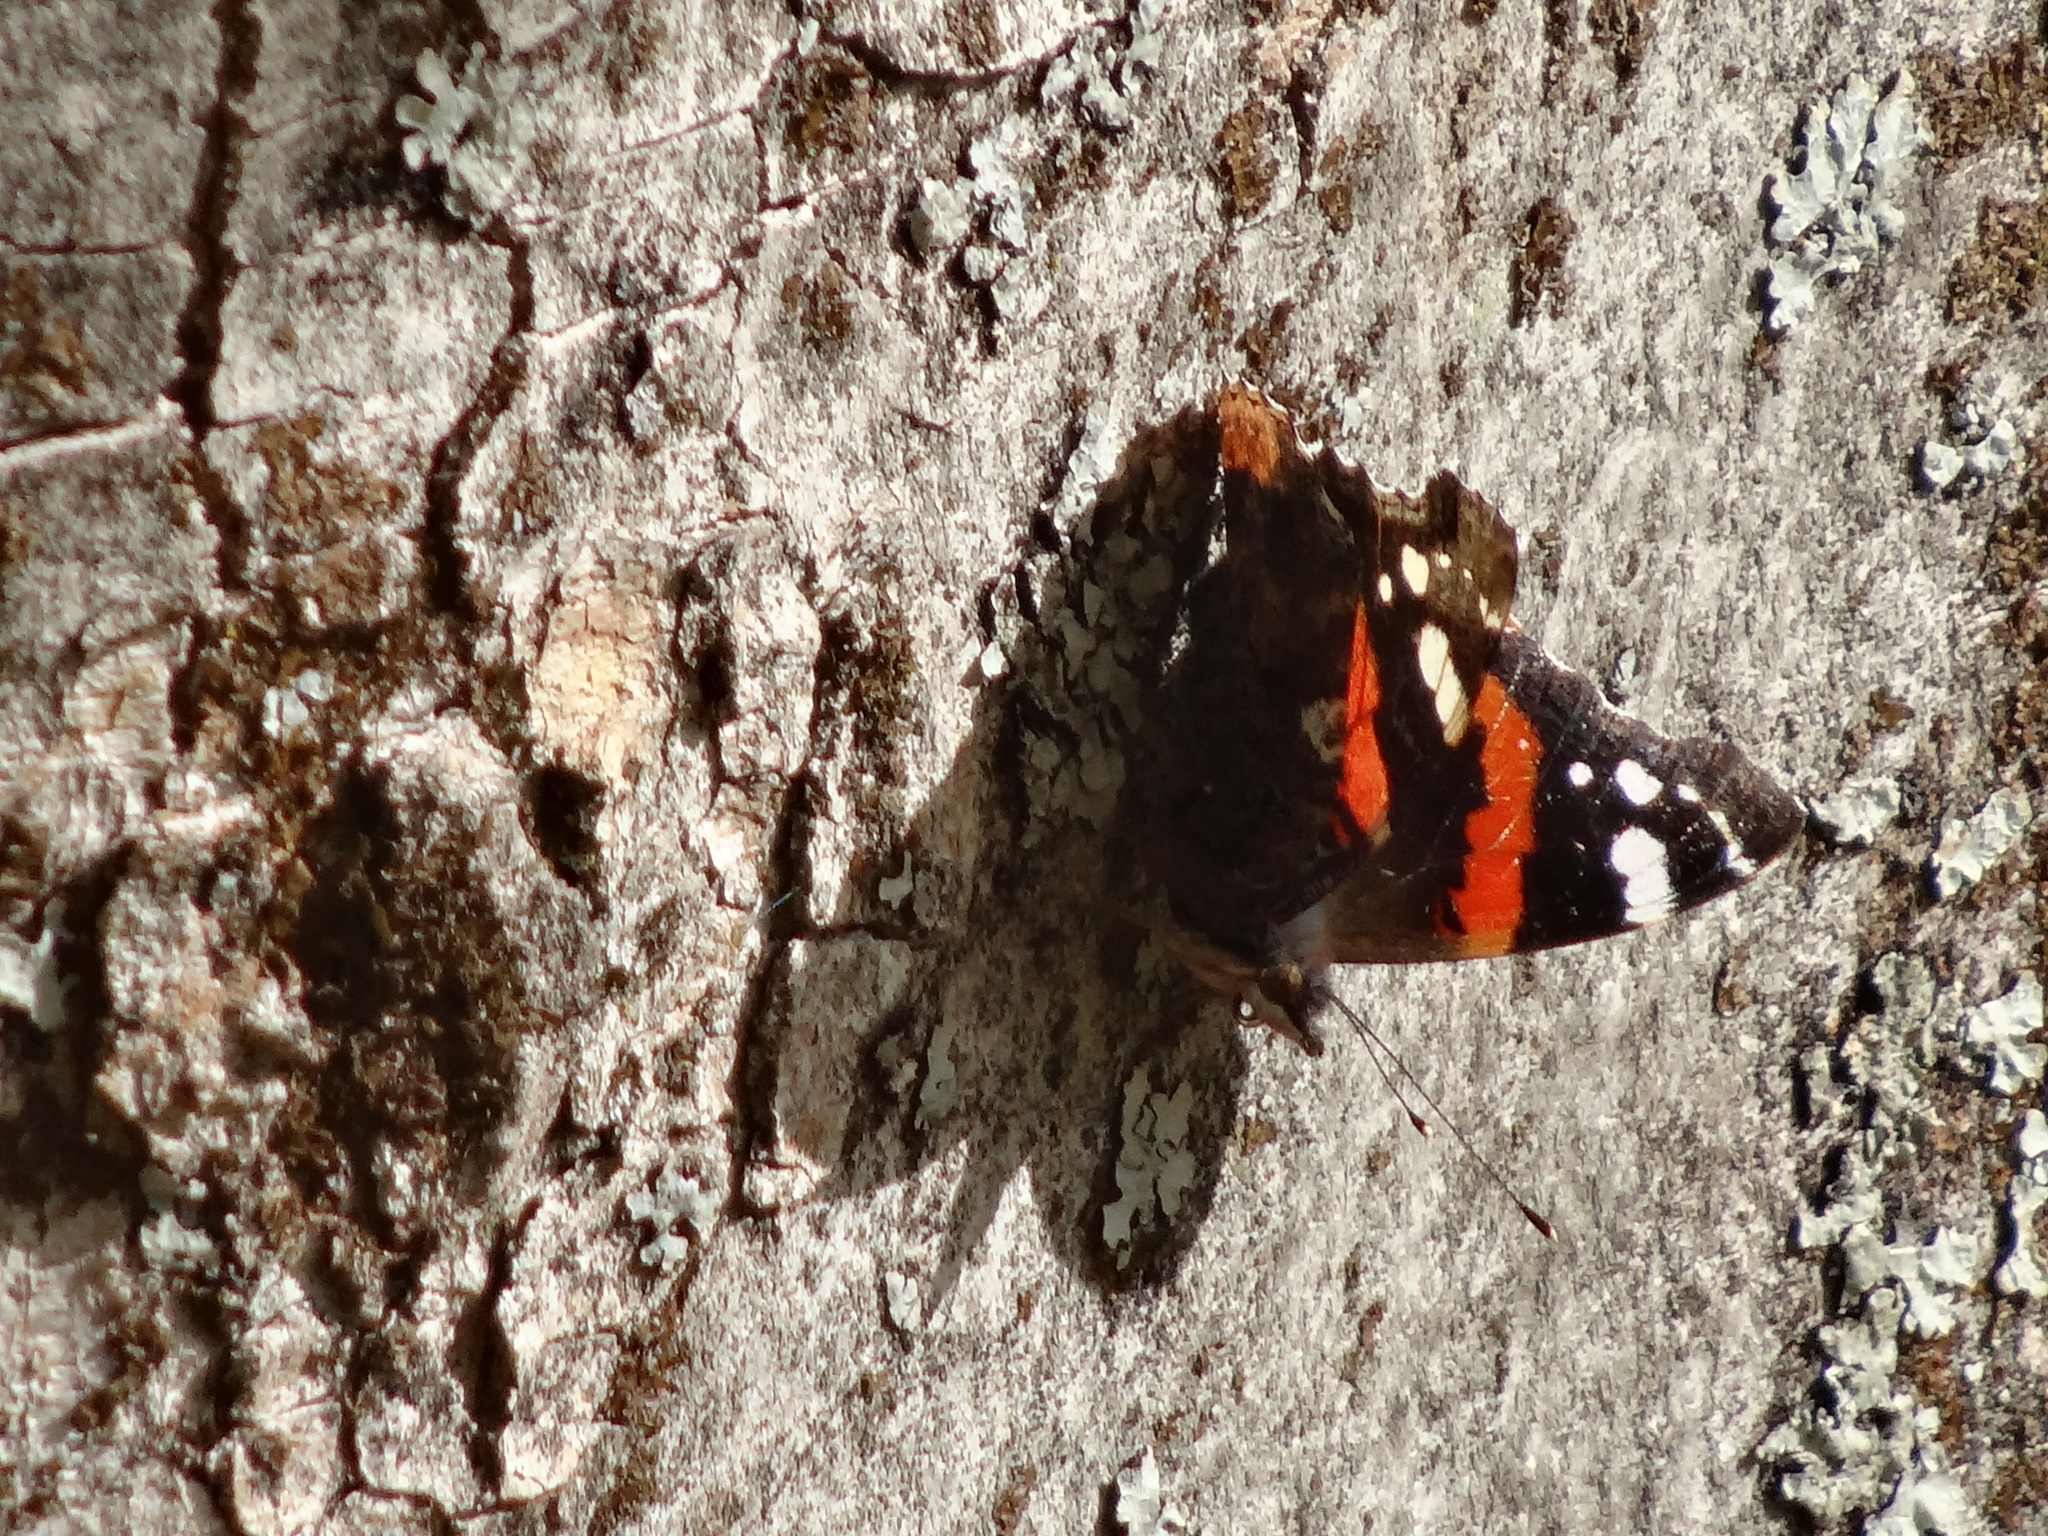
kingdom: Animalia
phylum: Arthropoda
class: Insecta
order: Lepidoptera
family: Nymphalidae
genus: Vanessa
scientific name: Vanessa atalanta
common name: Red admiral
